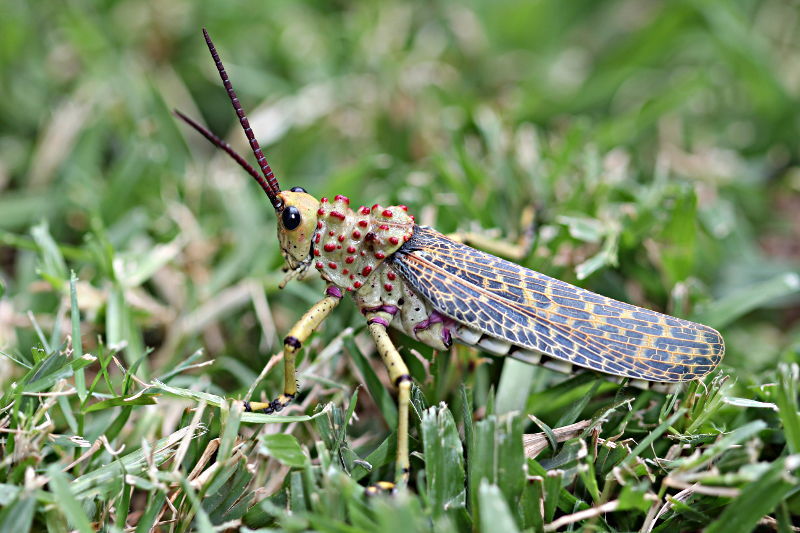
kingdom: Animalia
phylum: Arthropoda
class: Insecta
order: Orthoptera
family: Pyrgomorphidae
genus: Phymateus
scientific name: Phymateus baccatus
